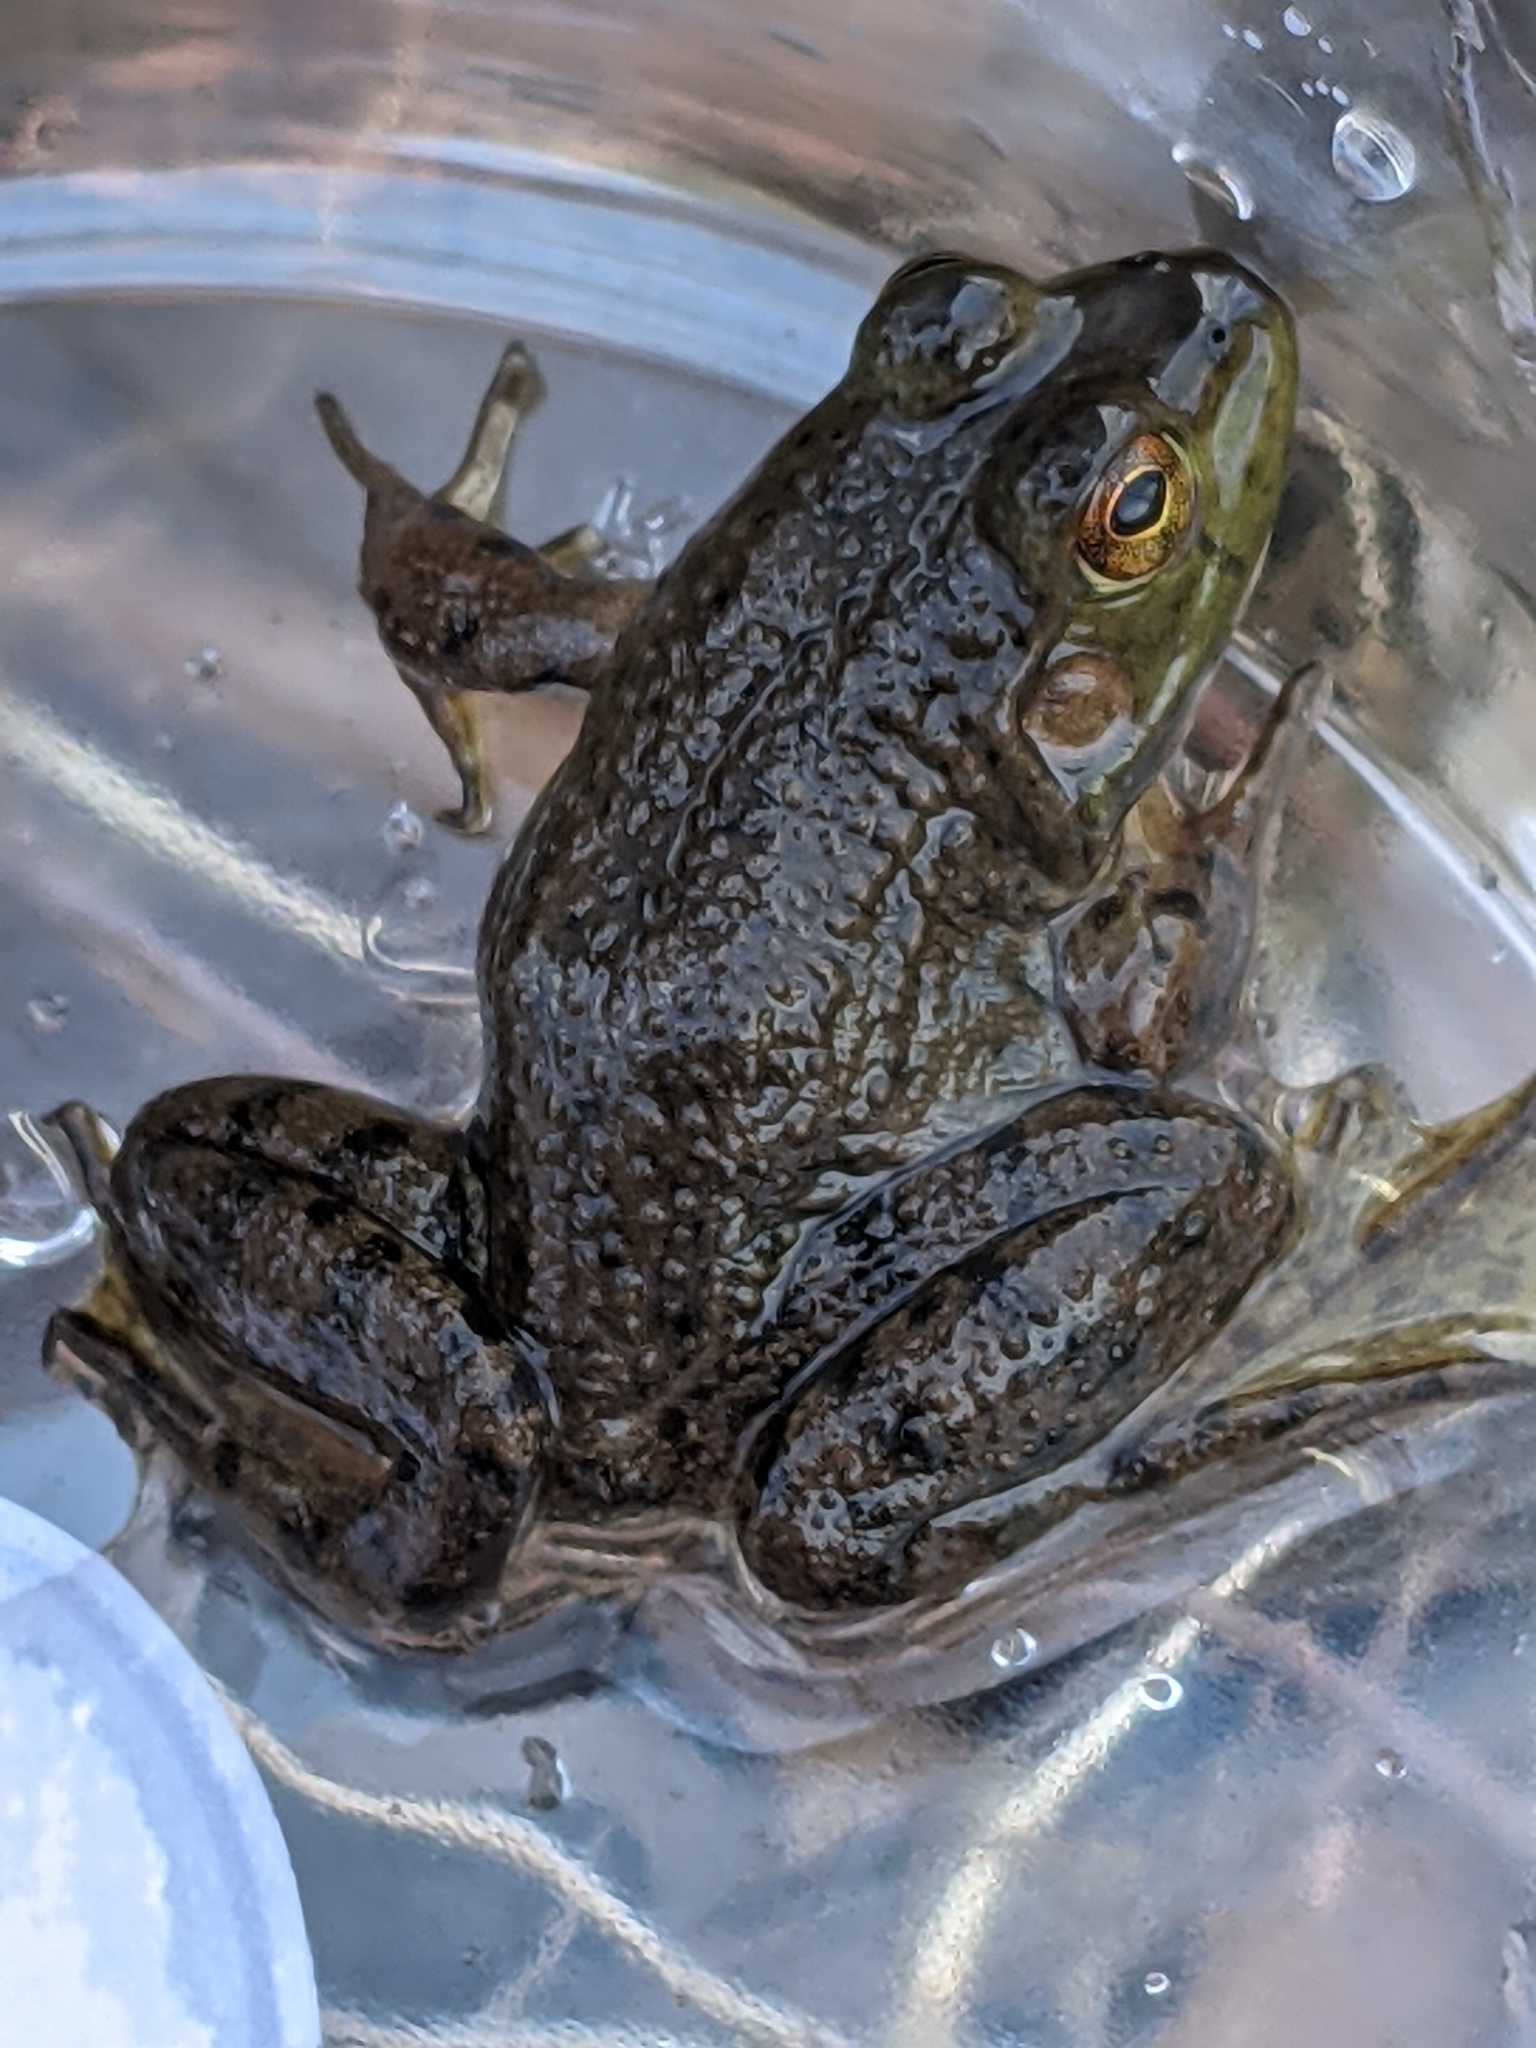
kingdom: Animalia
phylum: Chordata
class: Amphibia
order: Anura
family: Ranidae
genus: Lithobates
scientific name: Lithobates catesbeianus
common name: American bullfrog
